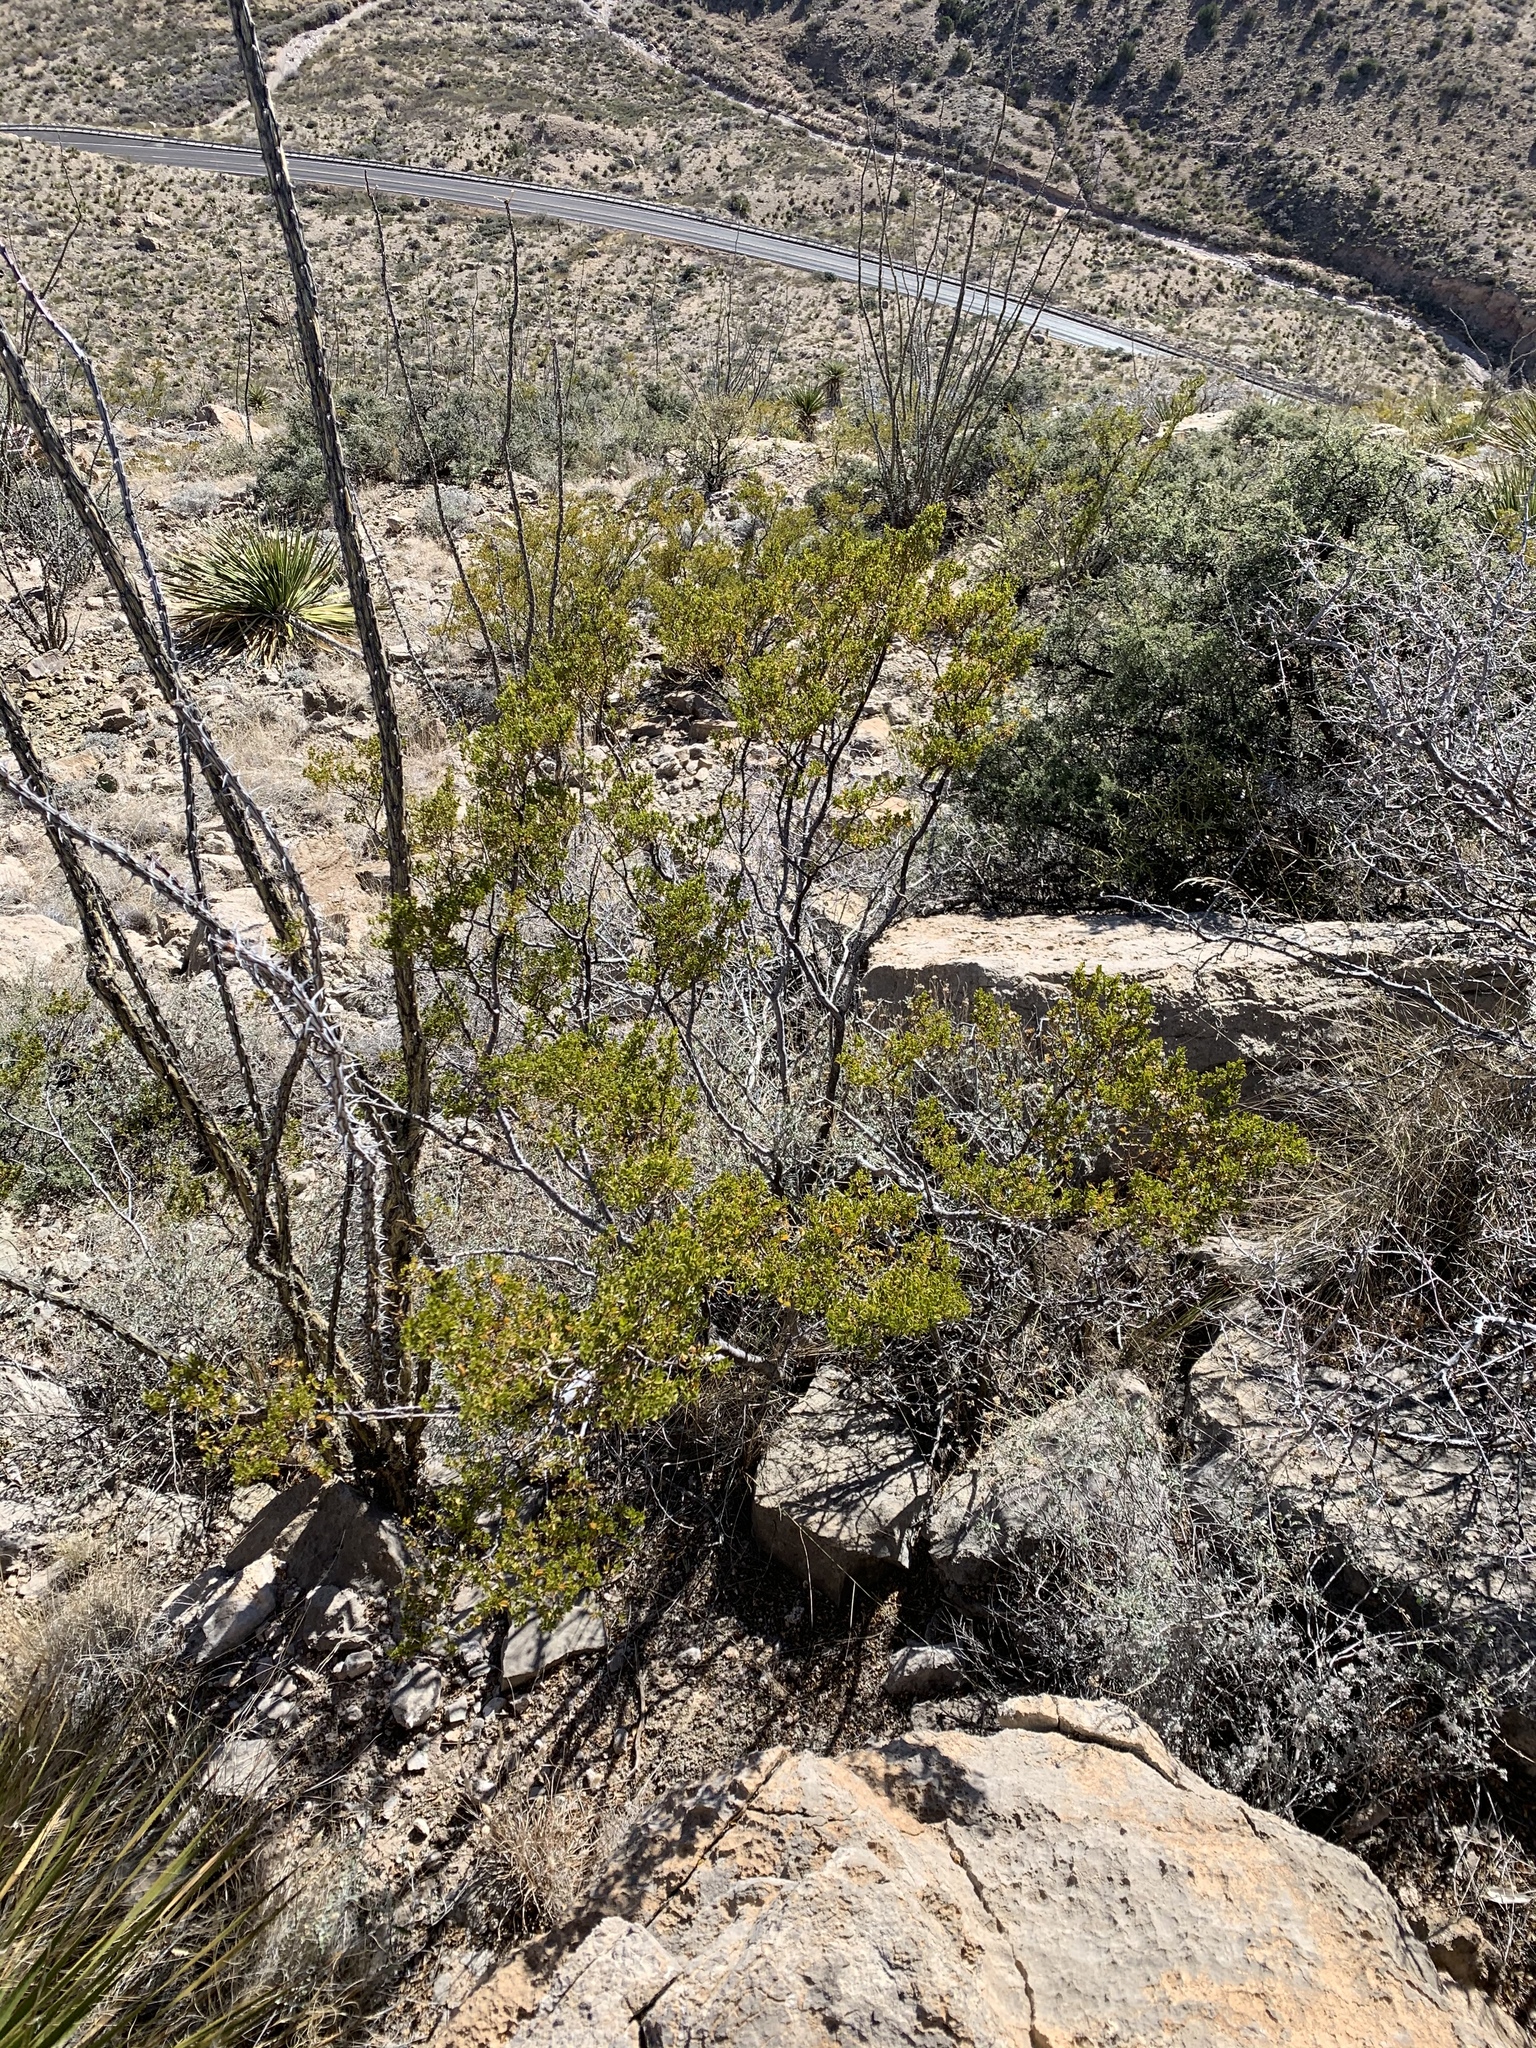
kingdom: Plantae
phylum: Tracheophyta
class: Magnoliopsida
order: Zygophyllales
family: Zygophyllaceae
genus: Larrea
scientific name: Larrea tridentata
